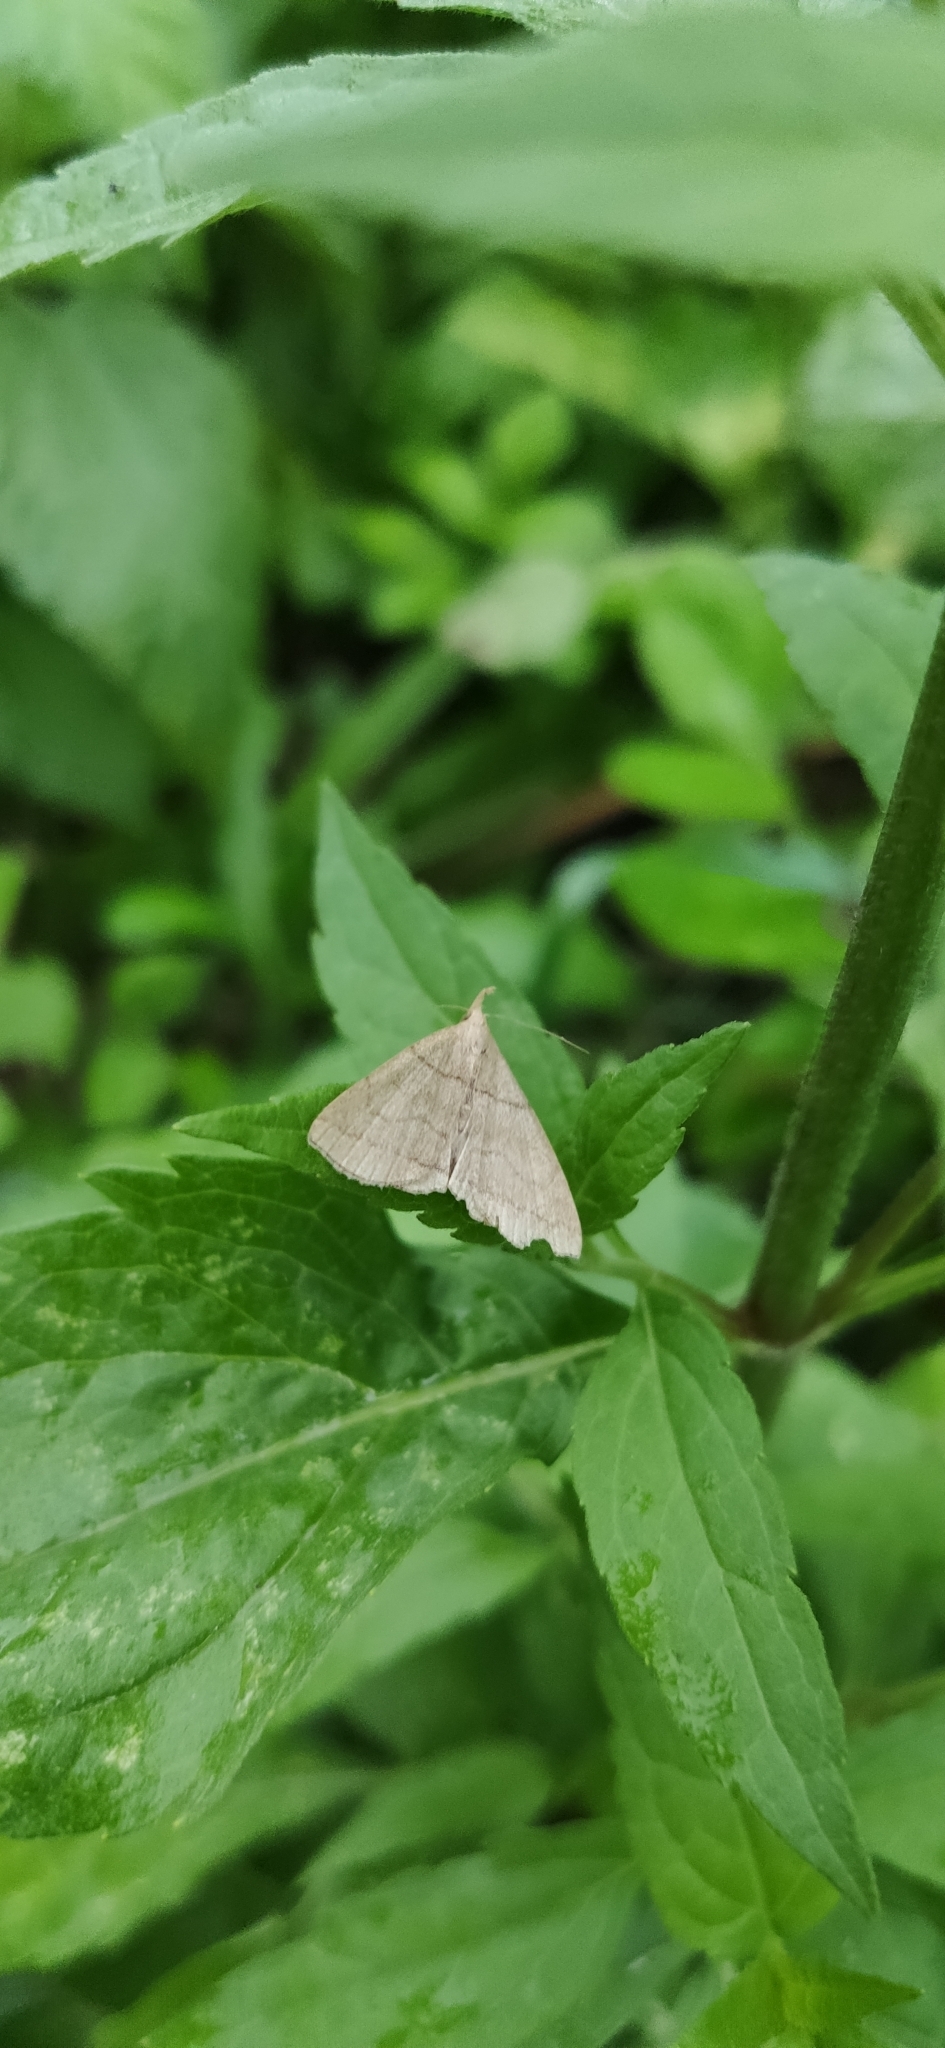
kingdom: Animalia
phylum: Arthropoda
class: Insecta
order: Lepidoptera
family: Erebidae
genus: Pechipogo
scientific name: Pechipogo strigilata
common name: Common fan-foot
